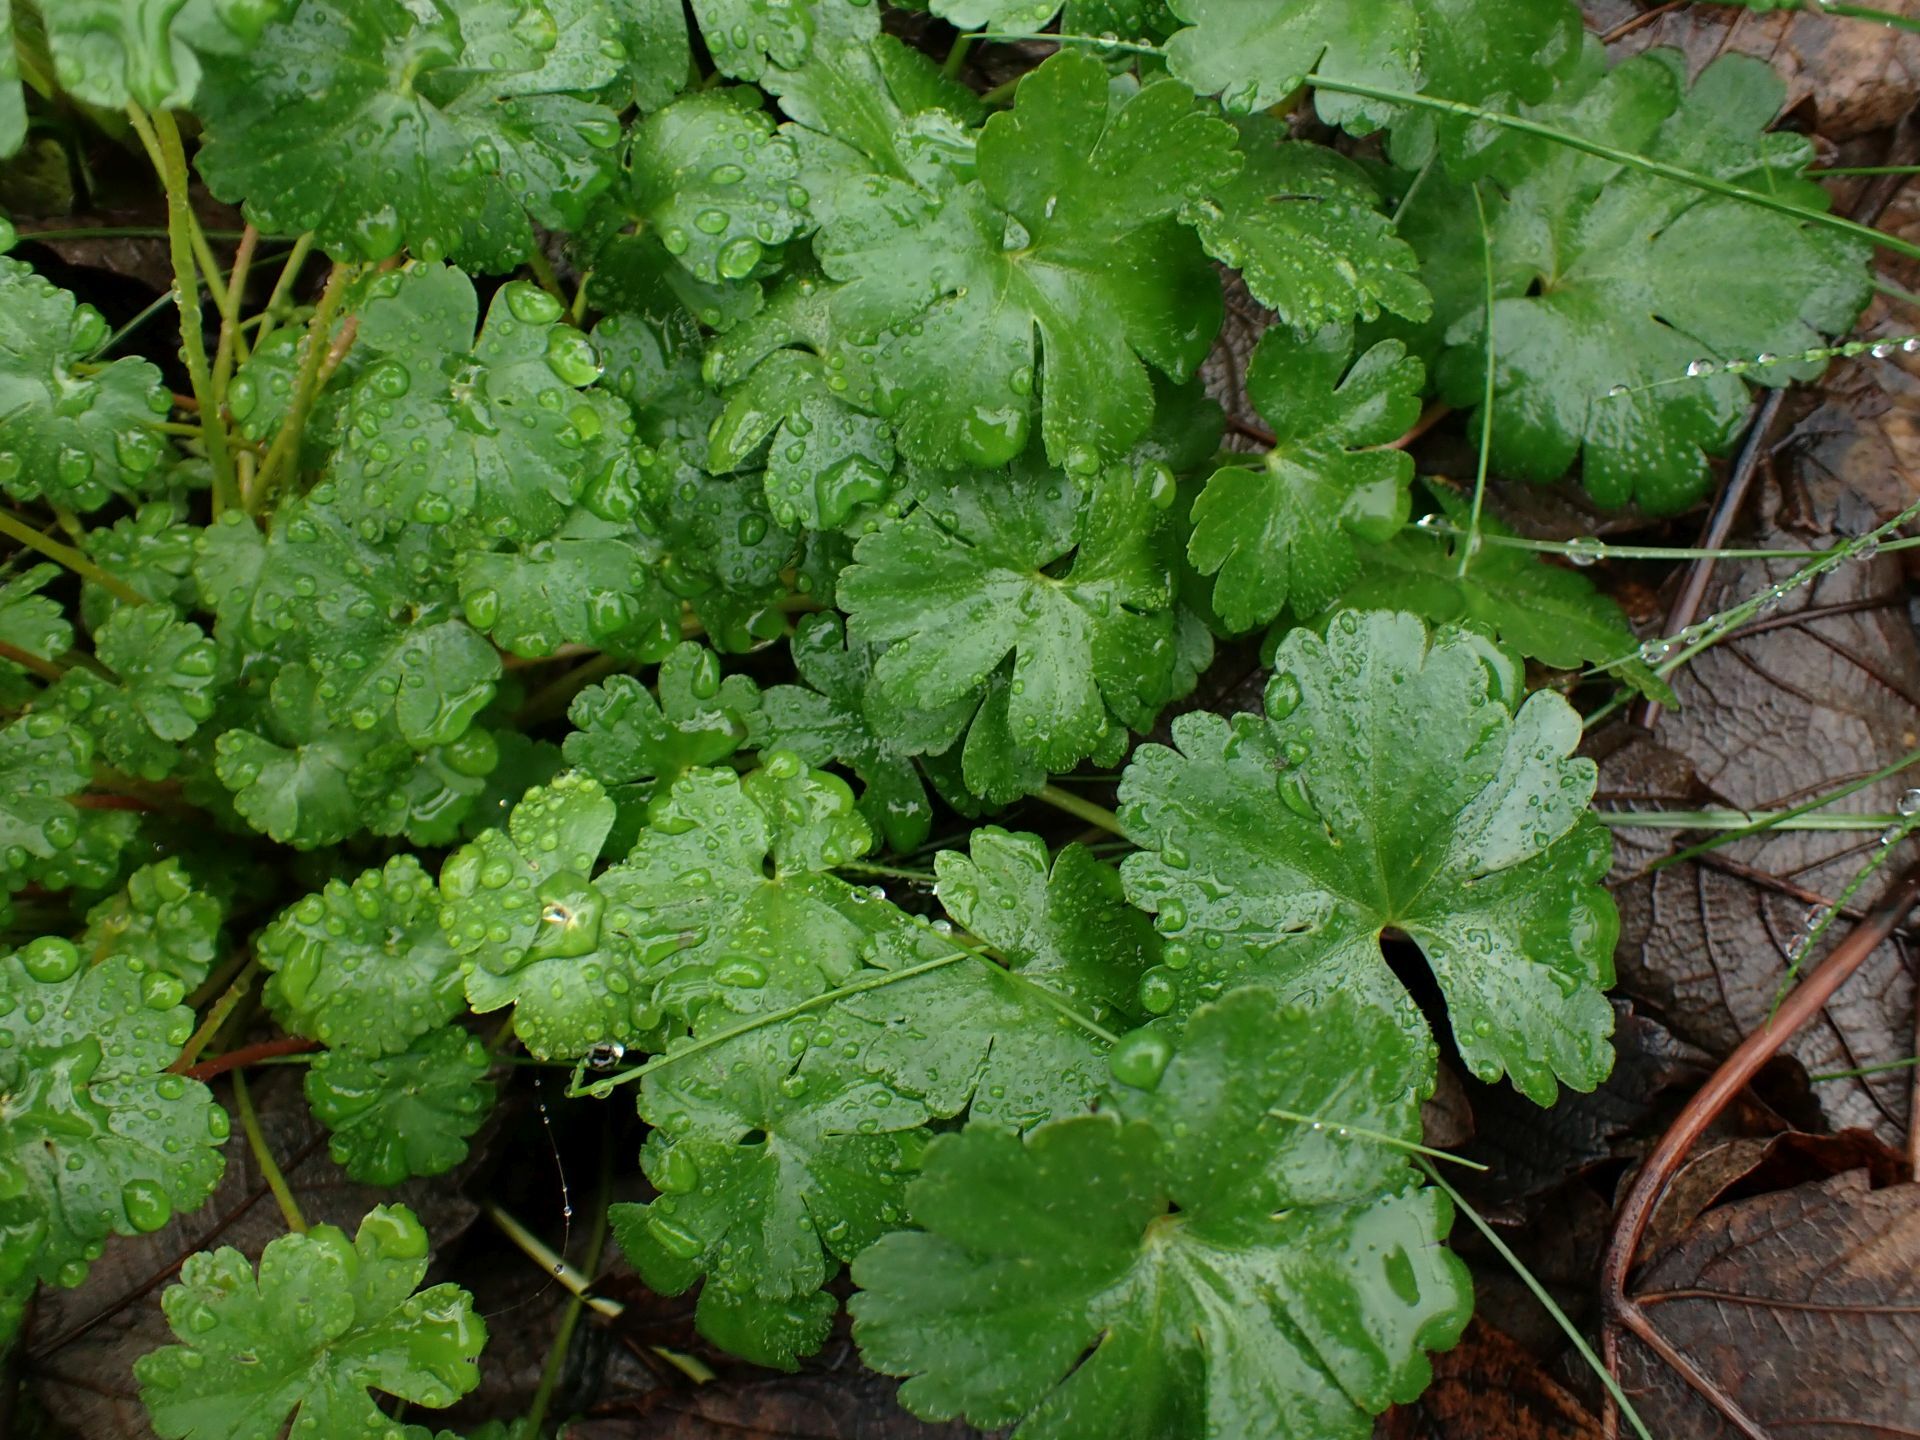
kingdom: Plantae
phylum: Tracheophyta
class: Magnoliopsida
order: Geraniales
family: Geraniaceae
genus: Geranium
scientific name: Geranium lucidum
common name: Shining crane's-bill
